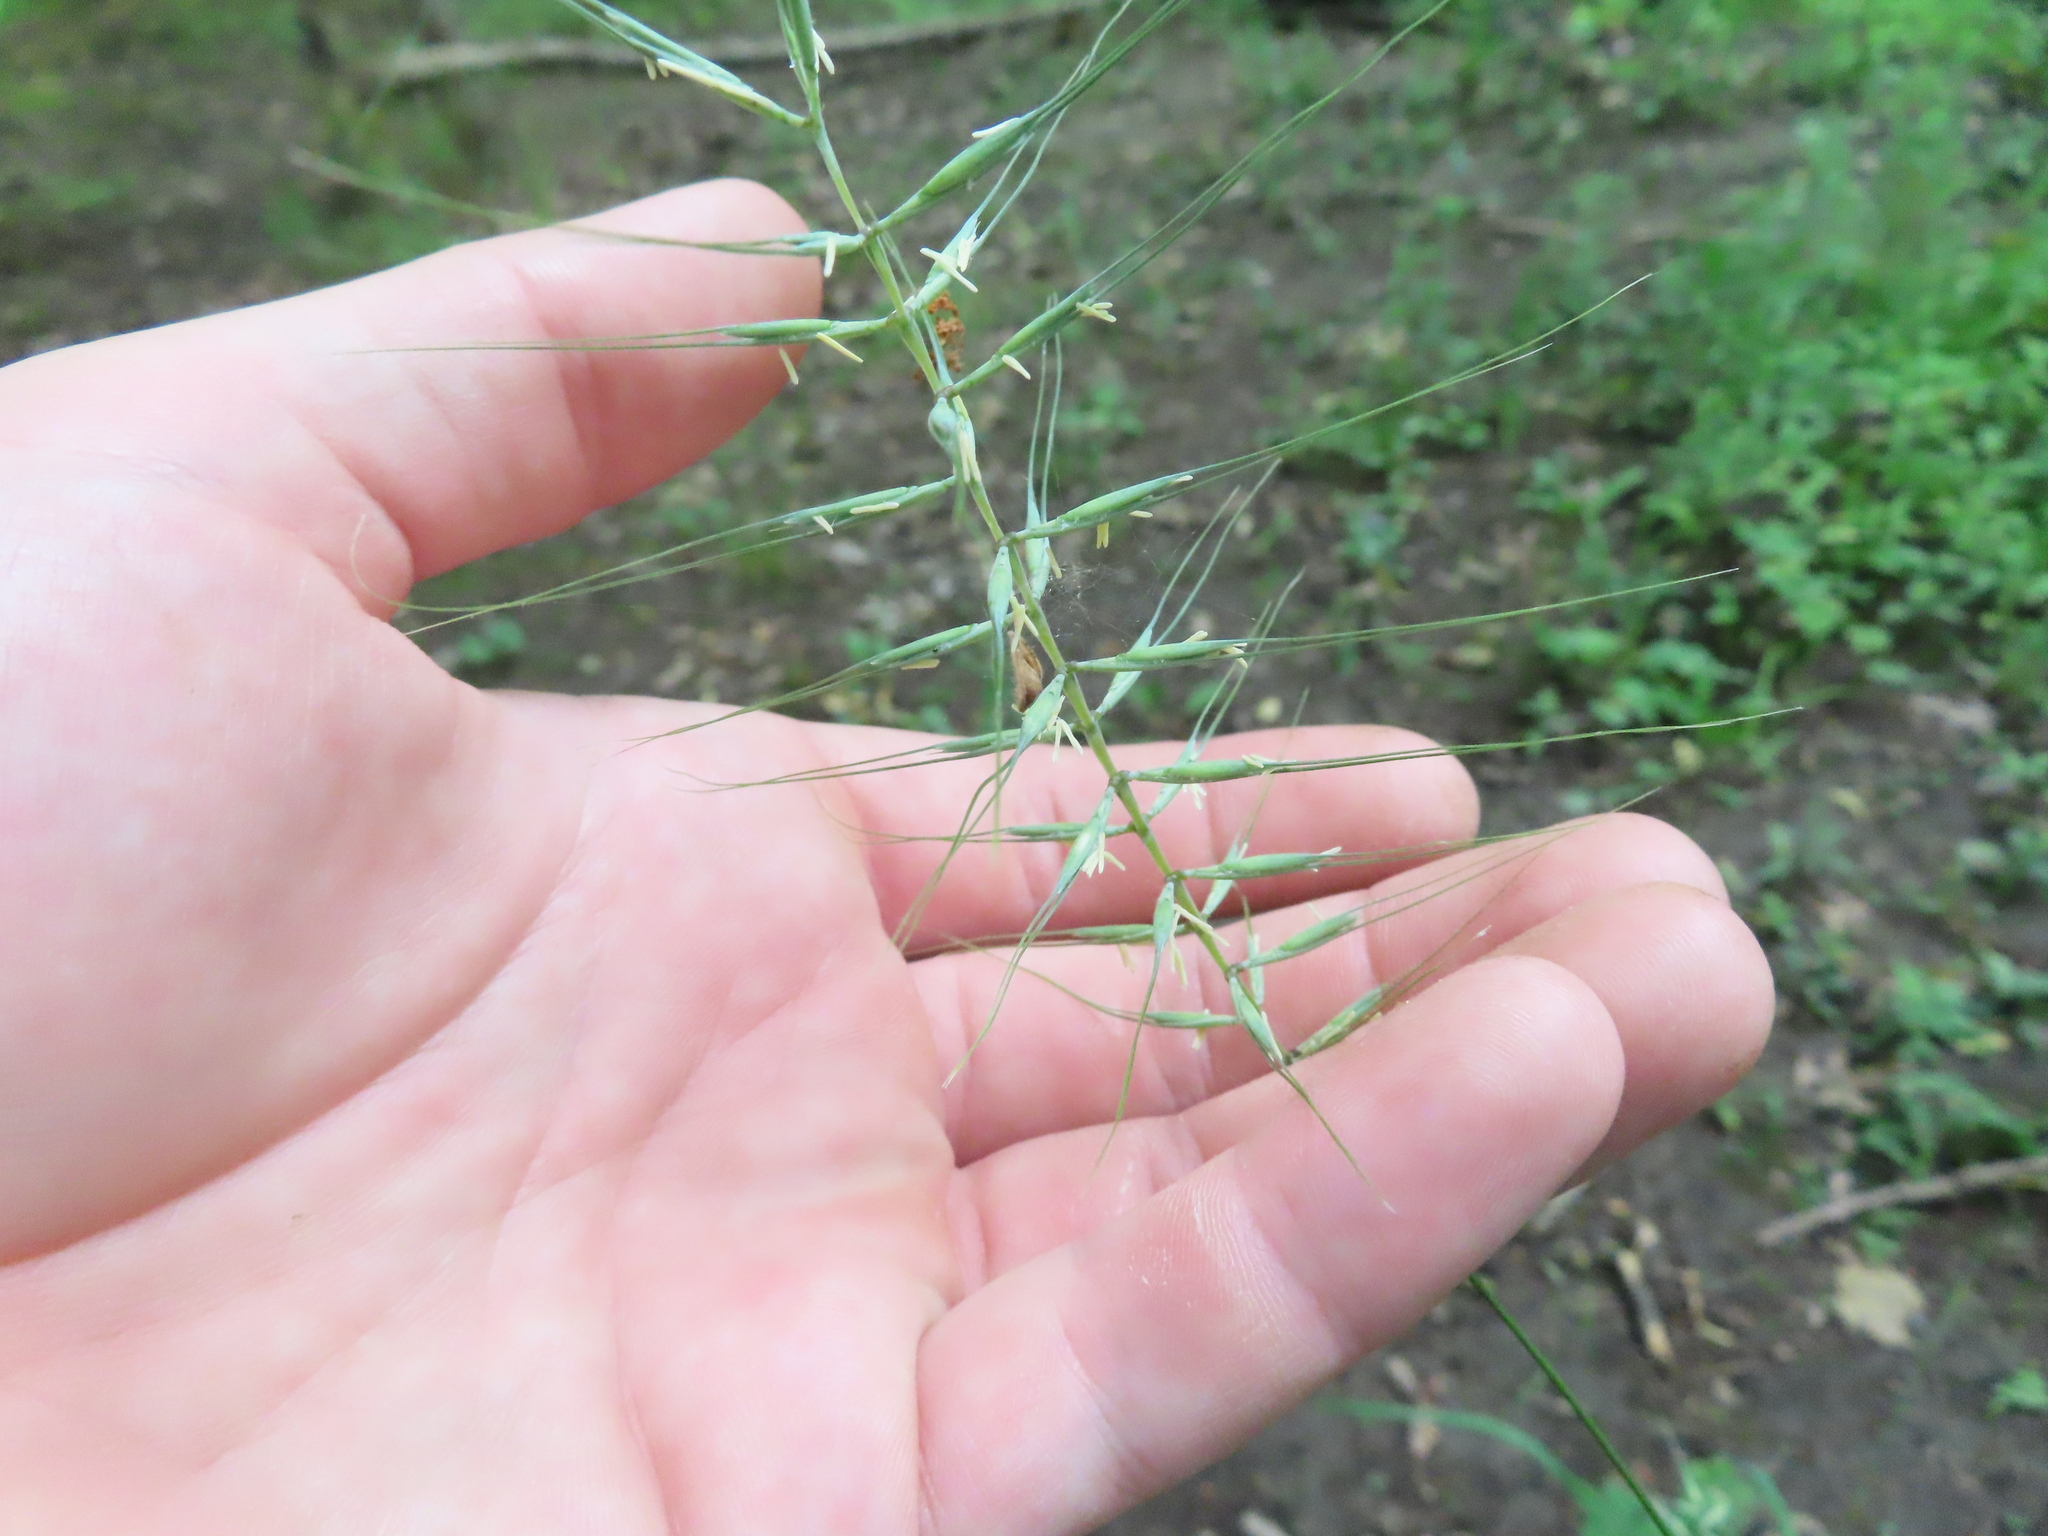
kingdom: Plantae
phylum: Tracheophyta
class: Liliopsida
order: Poales
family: Poaceae
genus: Elymus
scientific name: Elymus hystrix
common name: Bottlebrush grass
